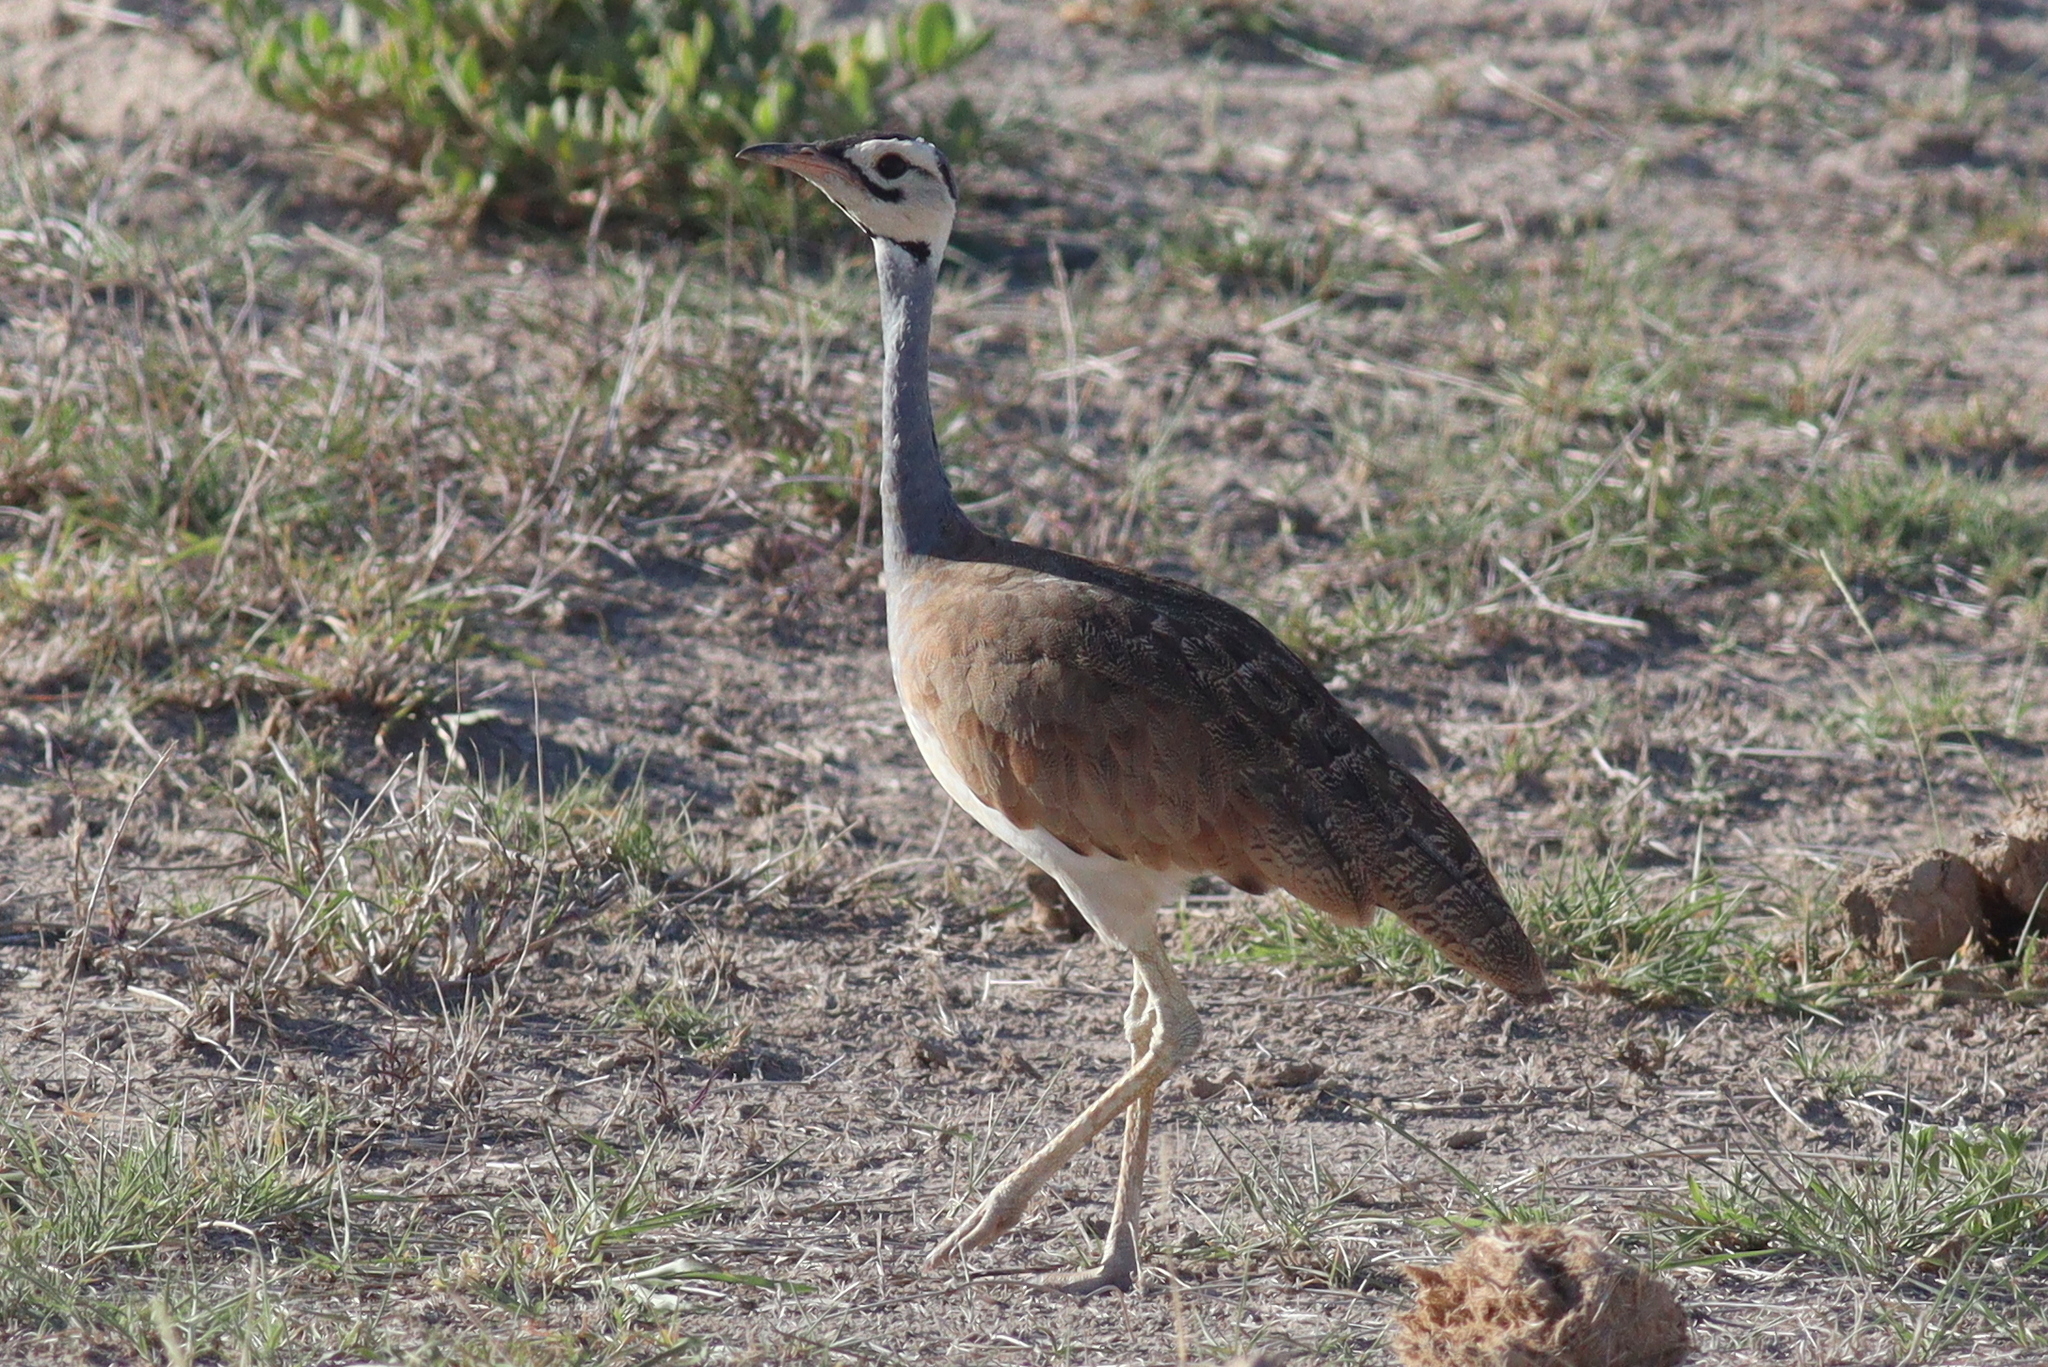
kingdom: Animalia
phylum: Chordata
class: Aves
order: Otidiformes
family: Otididae
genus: Eupodotis
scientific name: Eupodotis senegalensis
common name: White-bellied bustard
